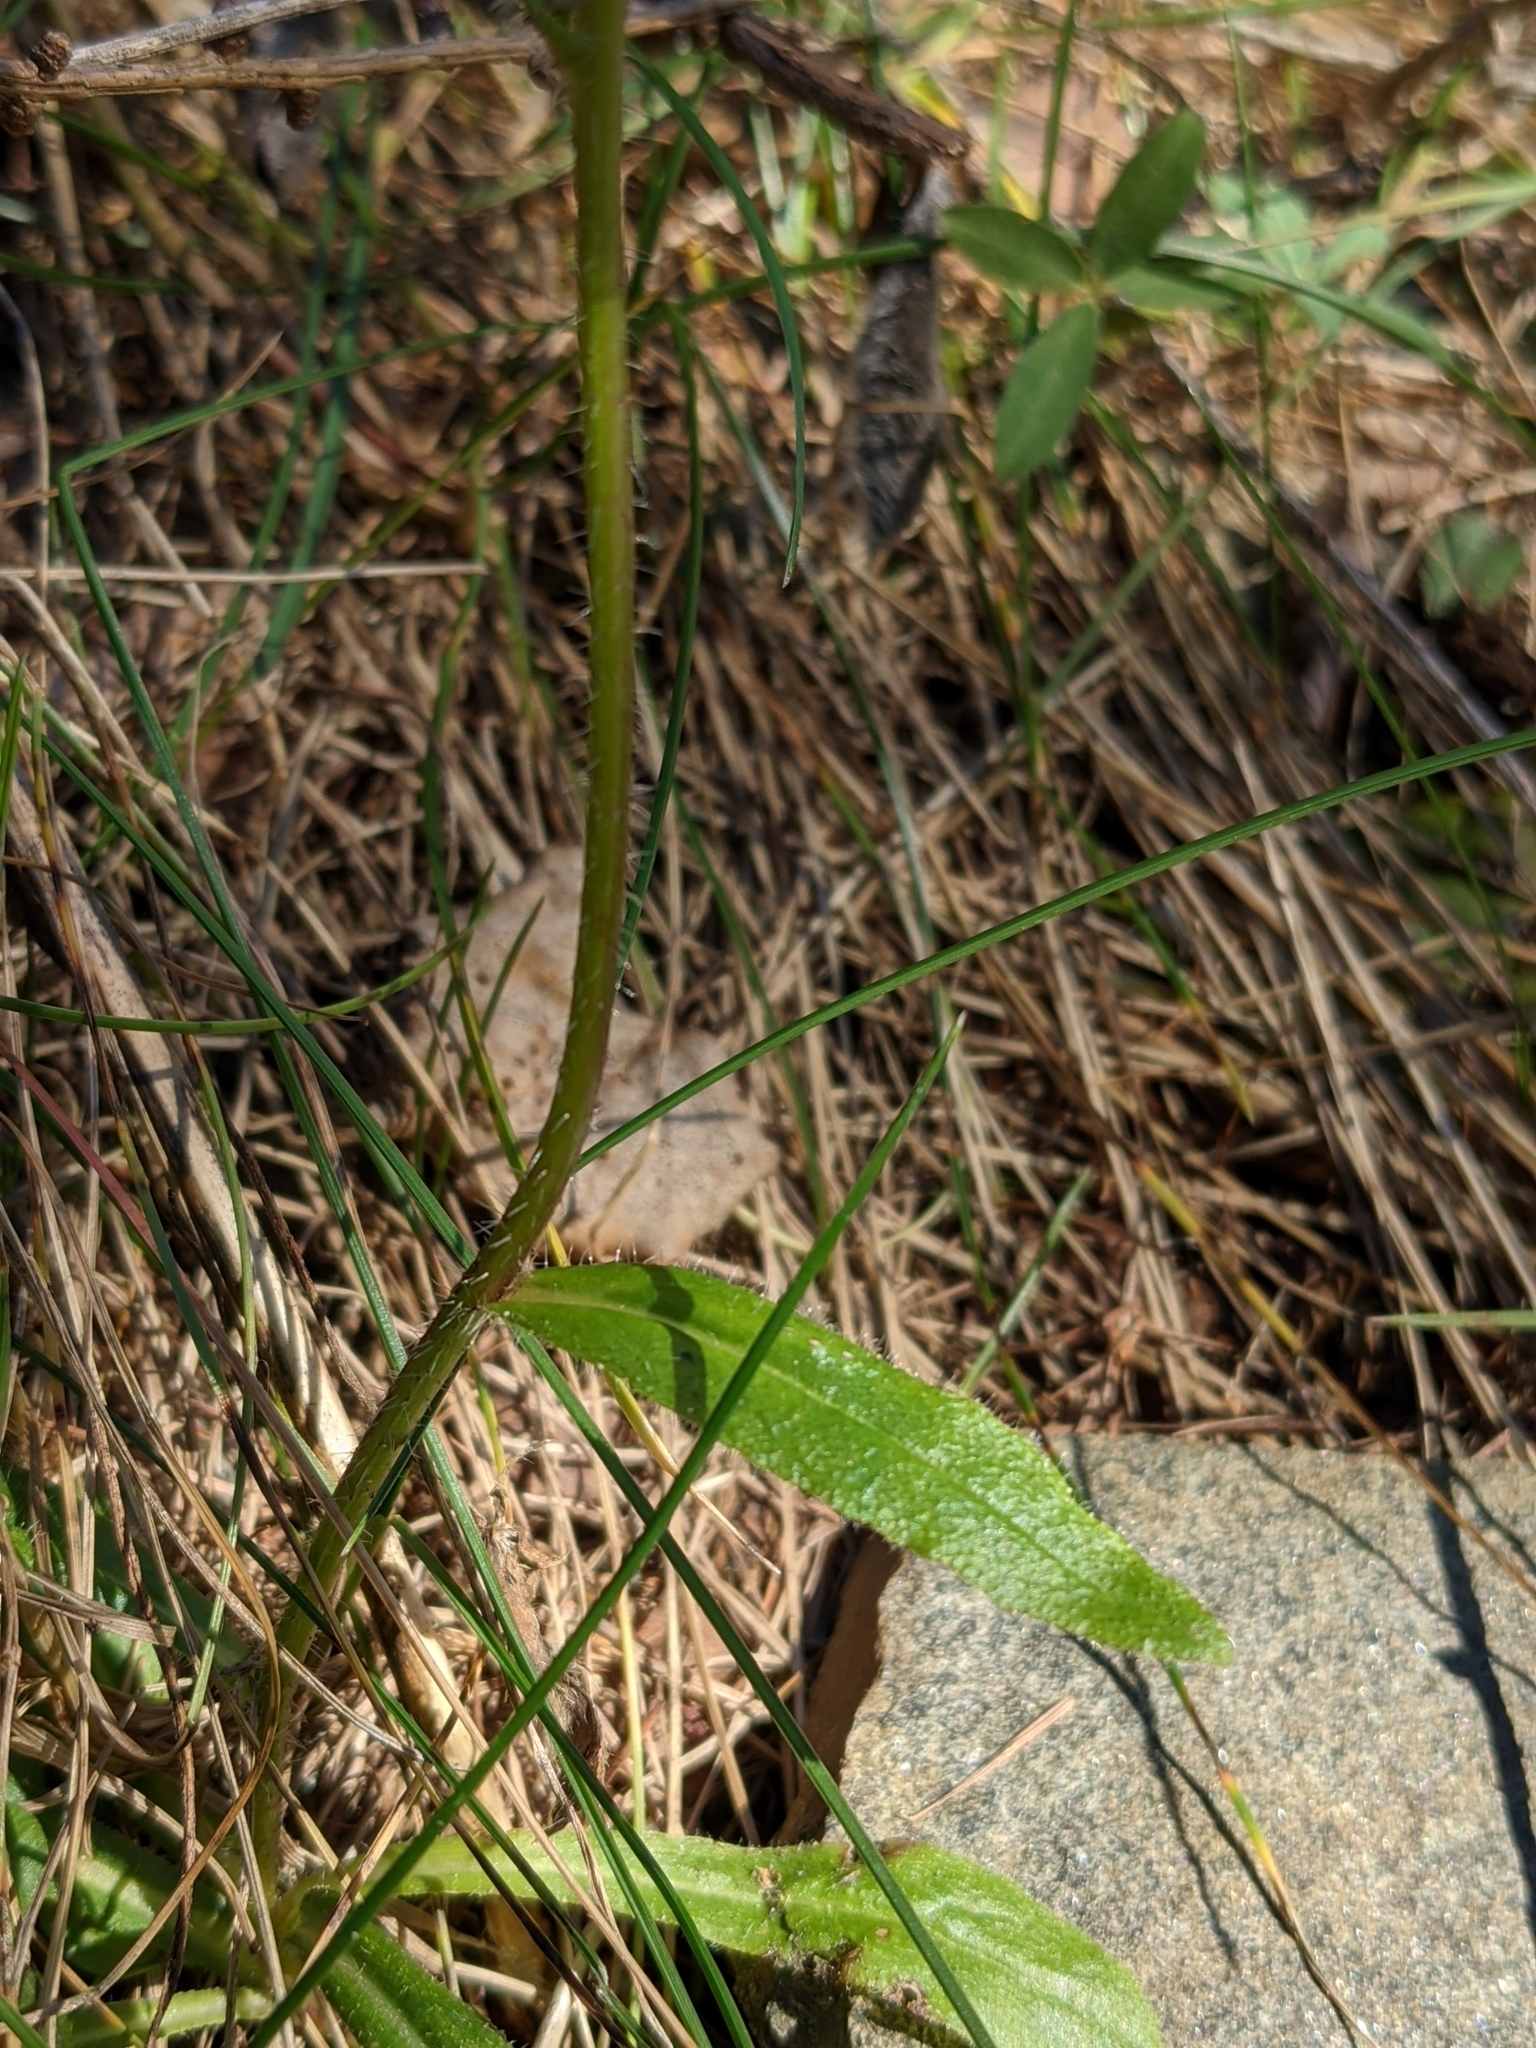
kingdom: Plantae
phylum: Tracheophyta
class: Magnoliopsida
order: Asterales
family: Campanulaceae
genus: Campanula
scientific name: Campanula barbata
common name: Bearded bellflower
